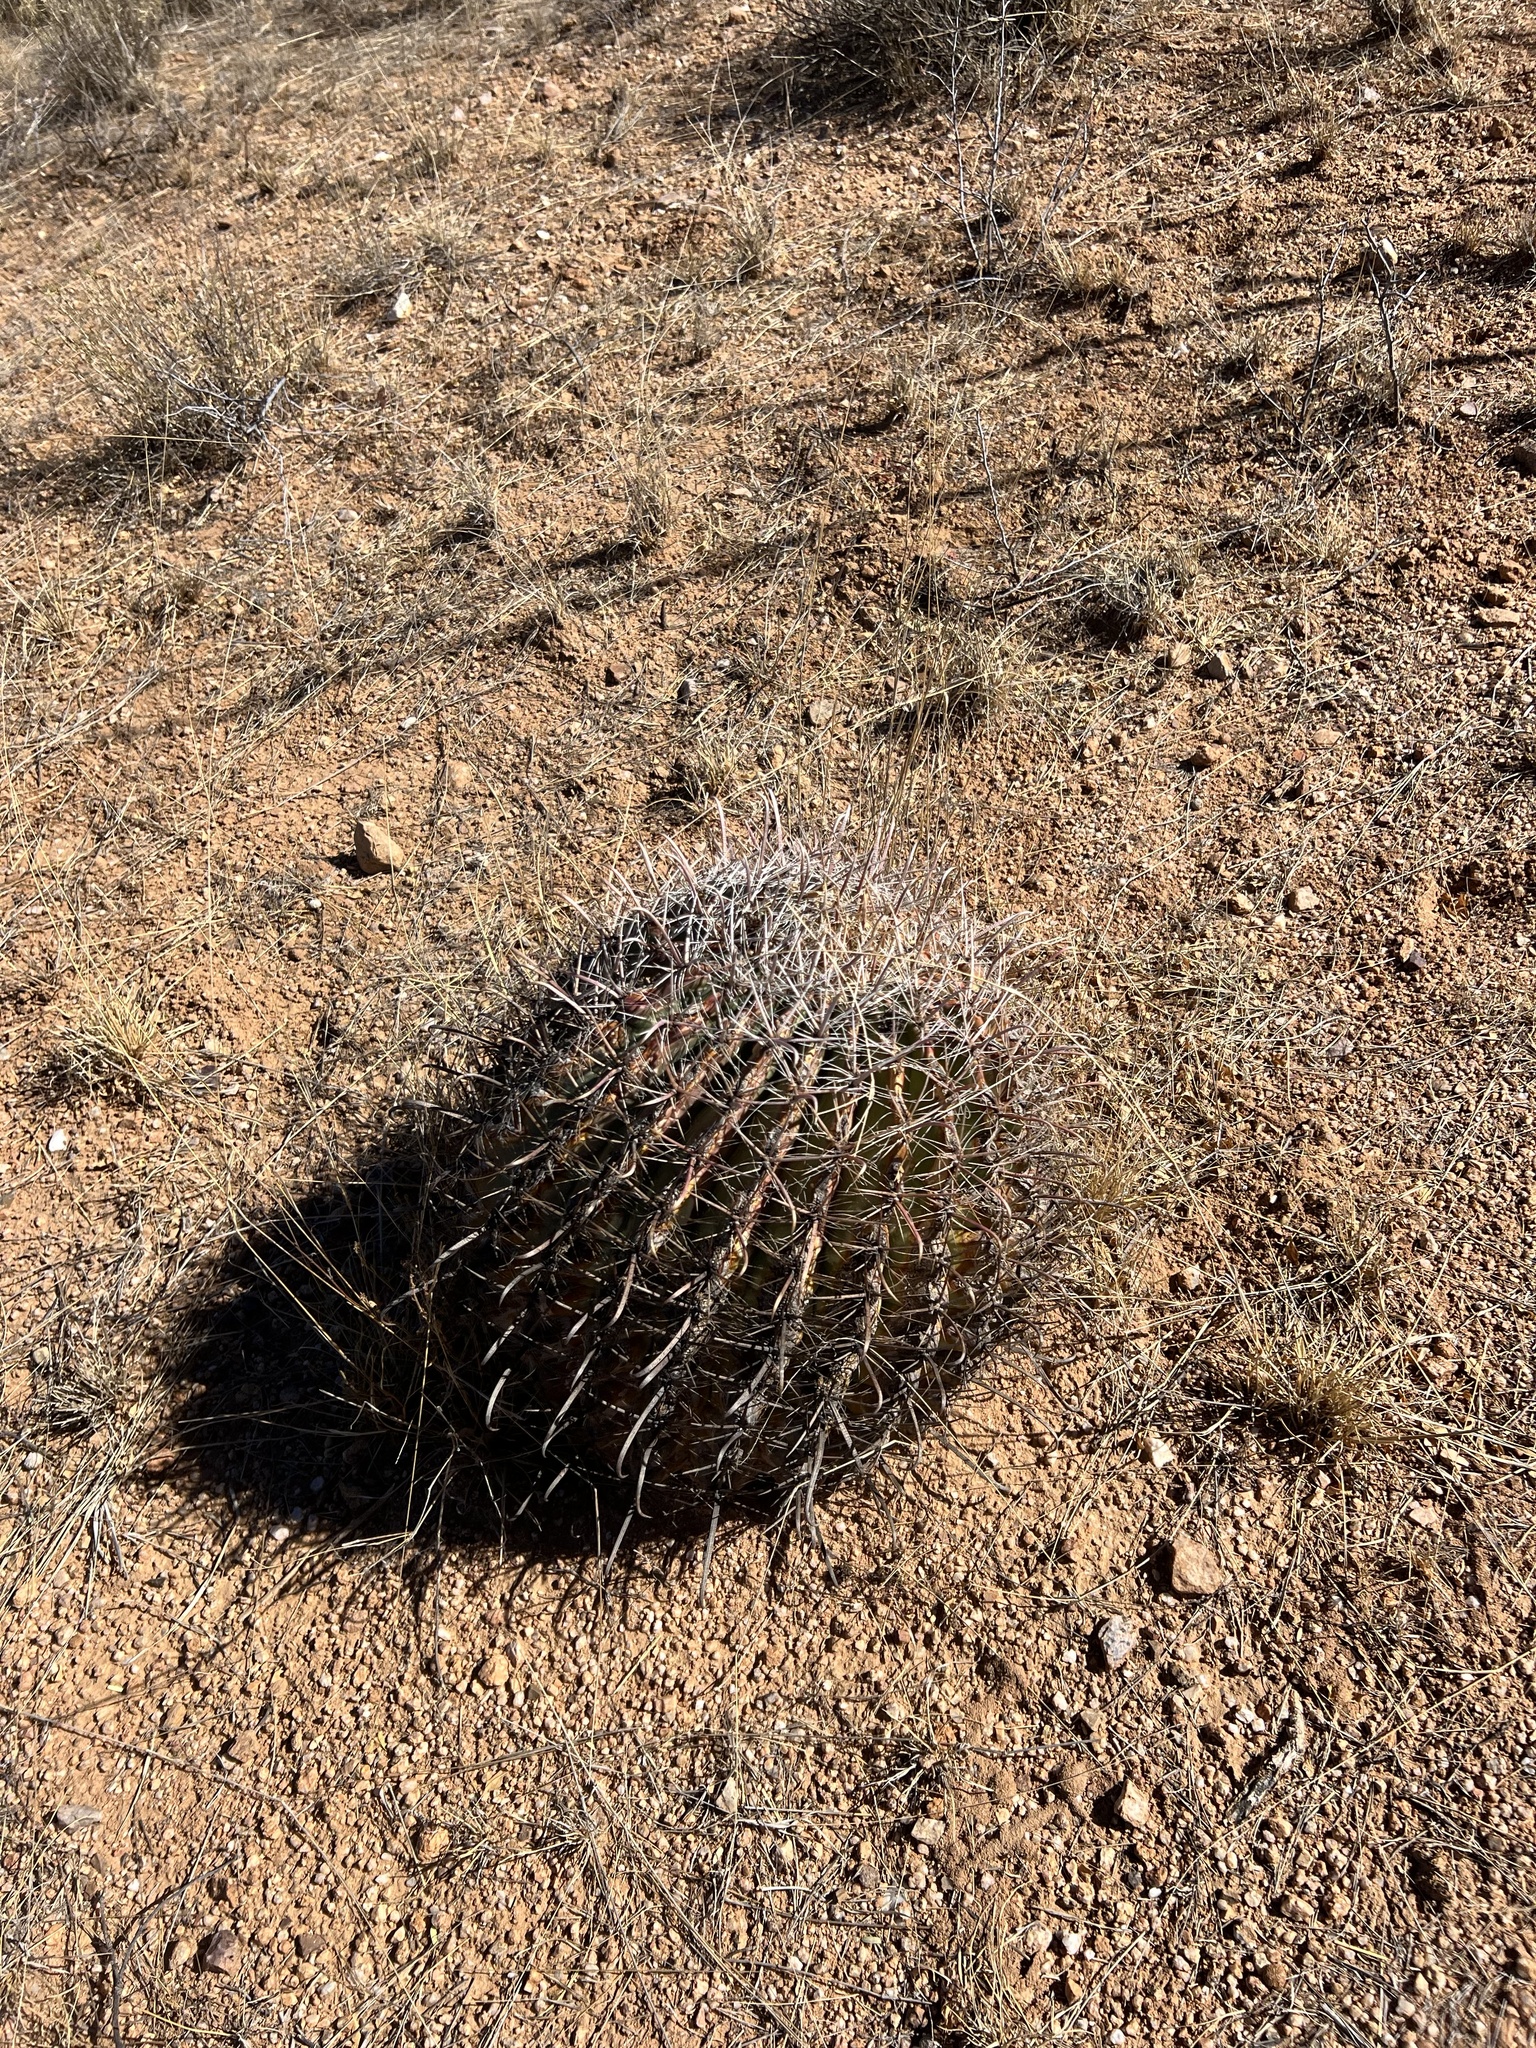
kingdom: Plantae
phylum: Tracheophyta
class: Magnoliopsida
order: Caryophyllales
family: Cactaceae
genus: Ferocactus
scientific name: Ferocactus wislizeni
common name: Candy barrel cactus
